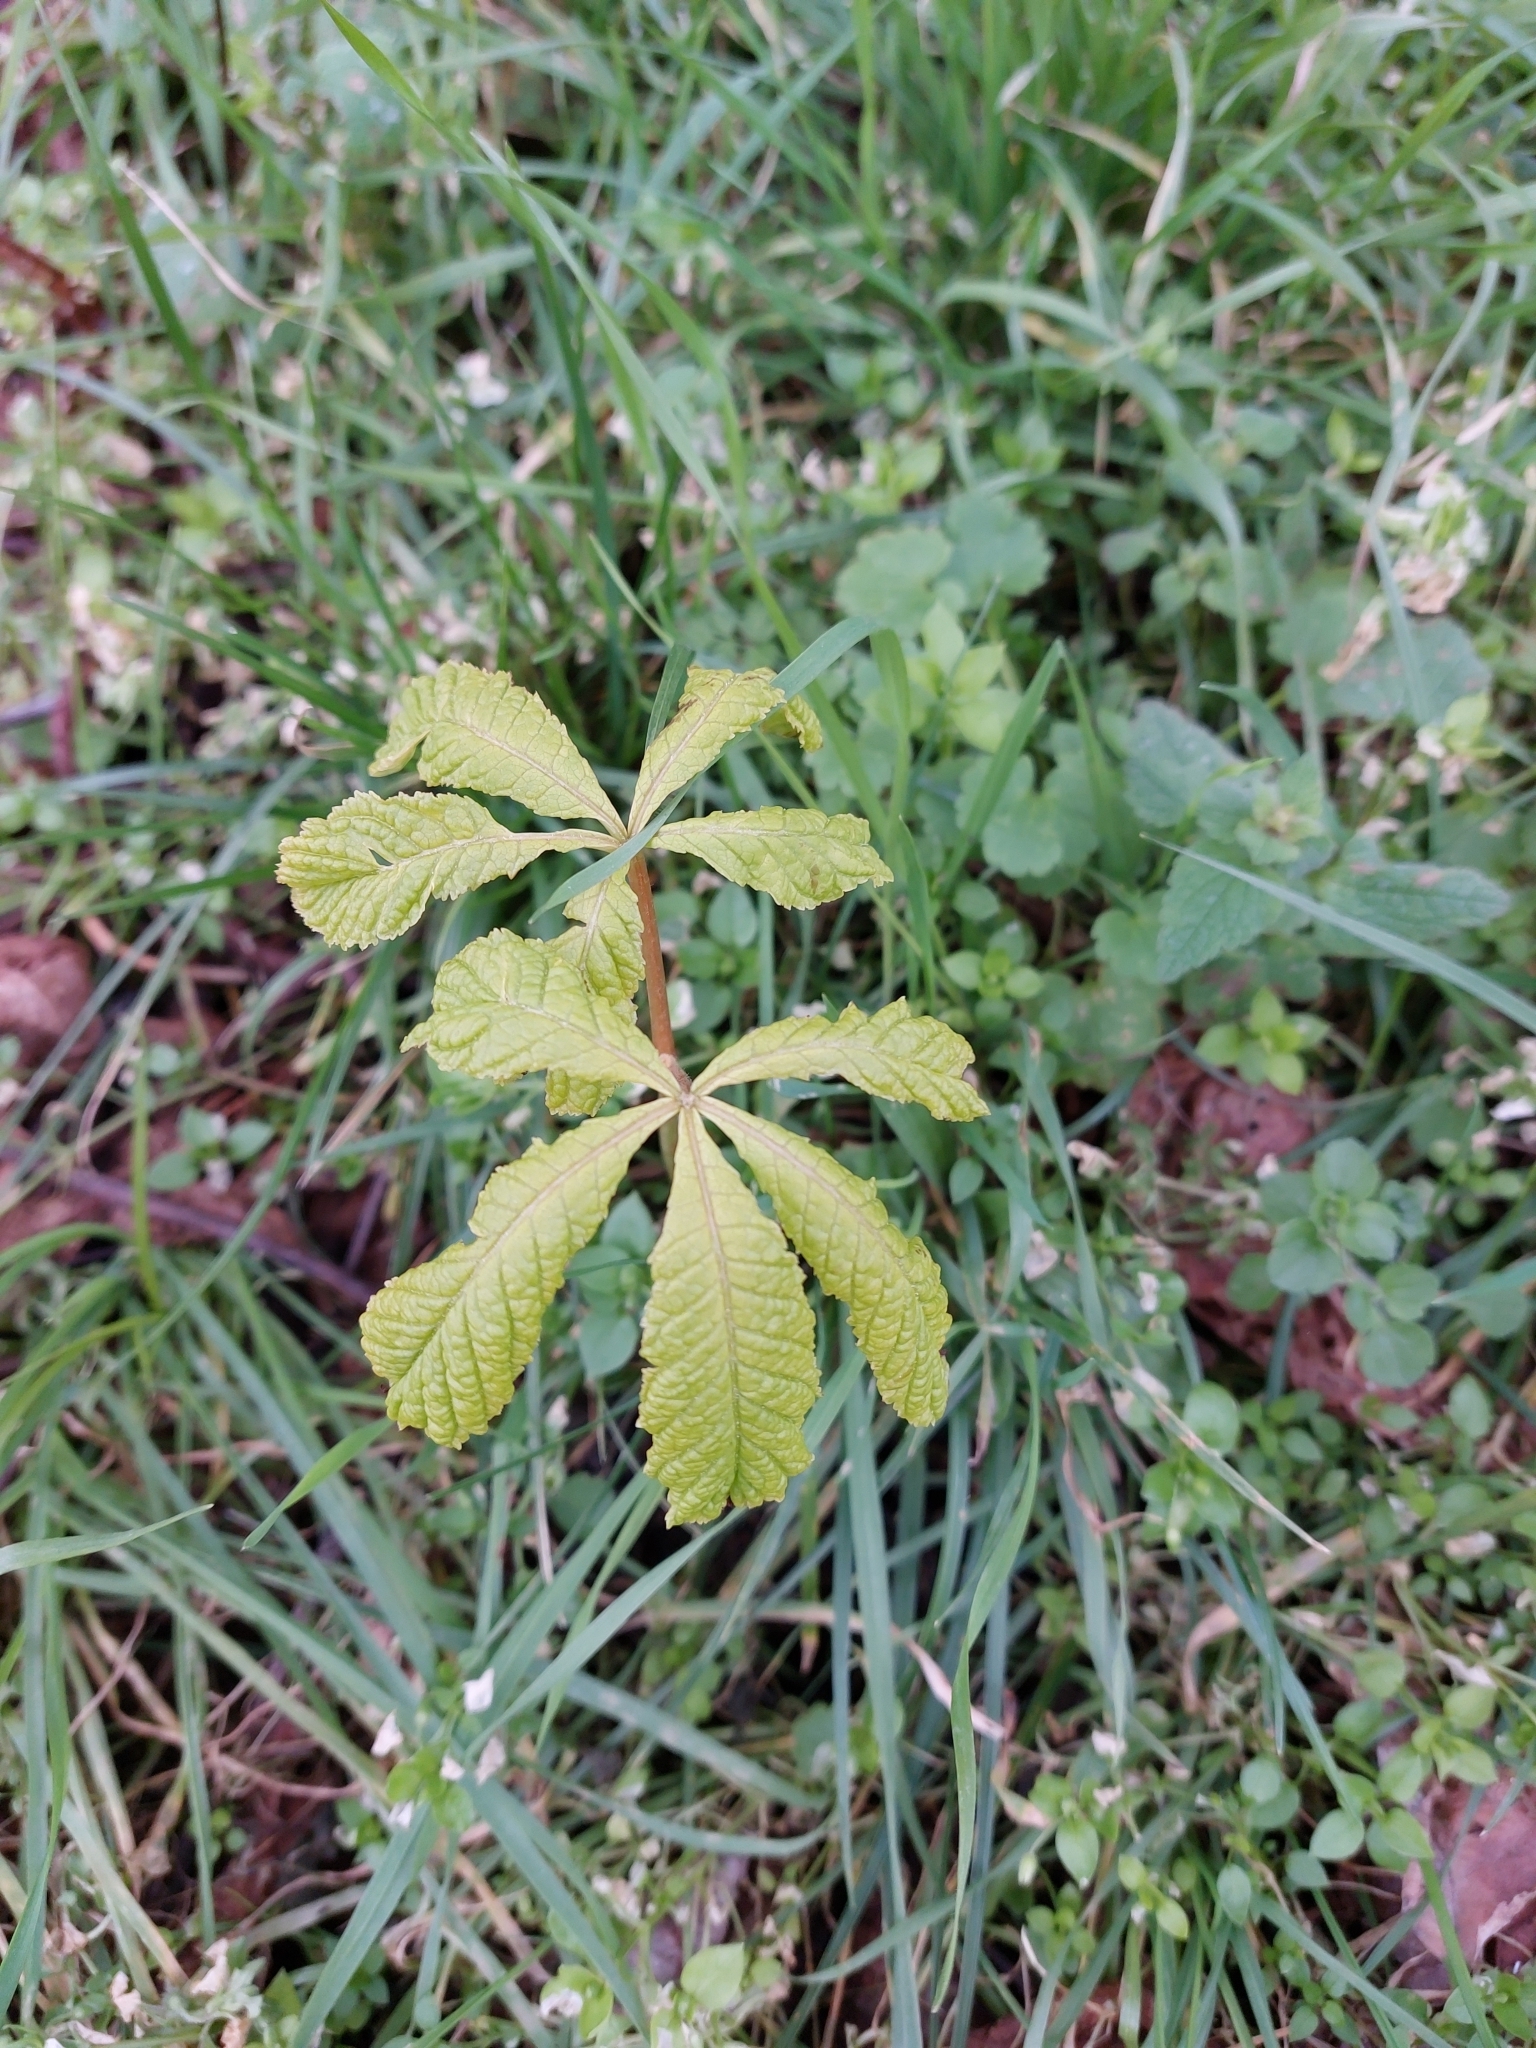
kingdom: Plantae
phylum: Tracheophyta
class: Magnoliopsida
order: Sapindales
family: Sapindaceae
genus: Aesculus
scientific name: Aesculus hippocastanum
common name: Horse-chestnut
